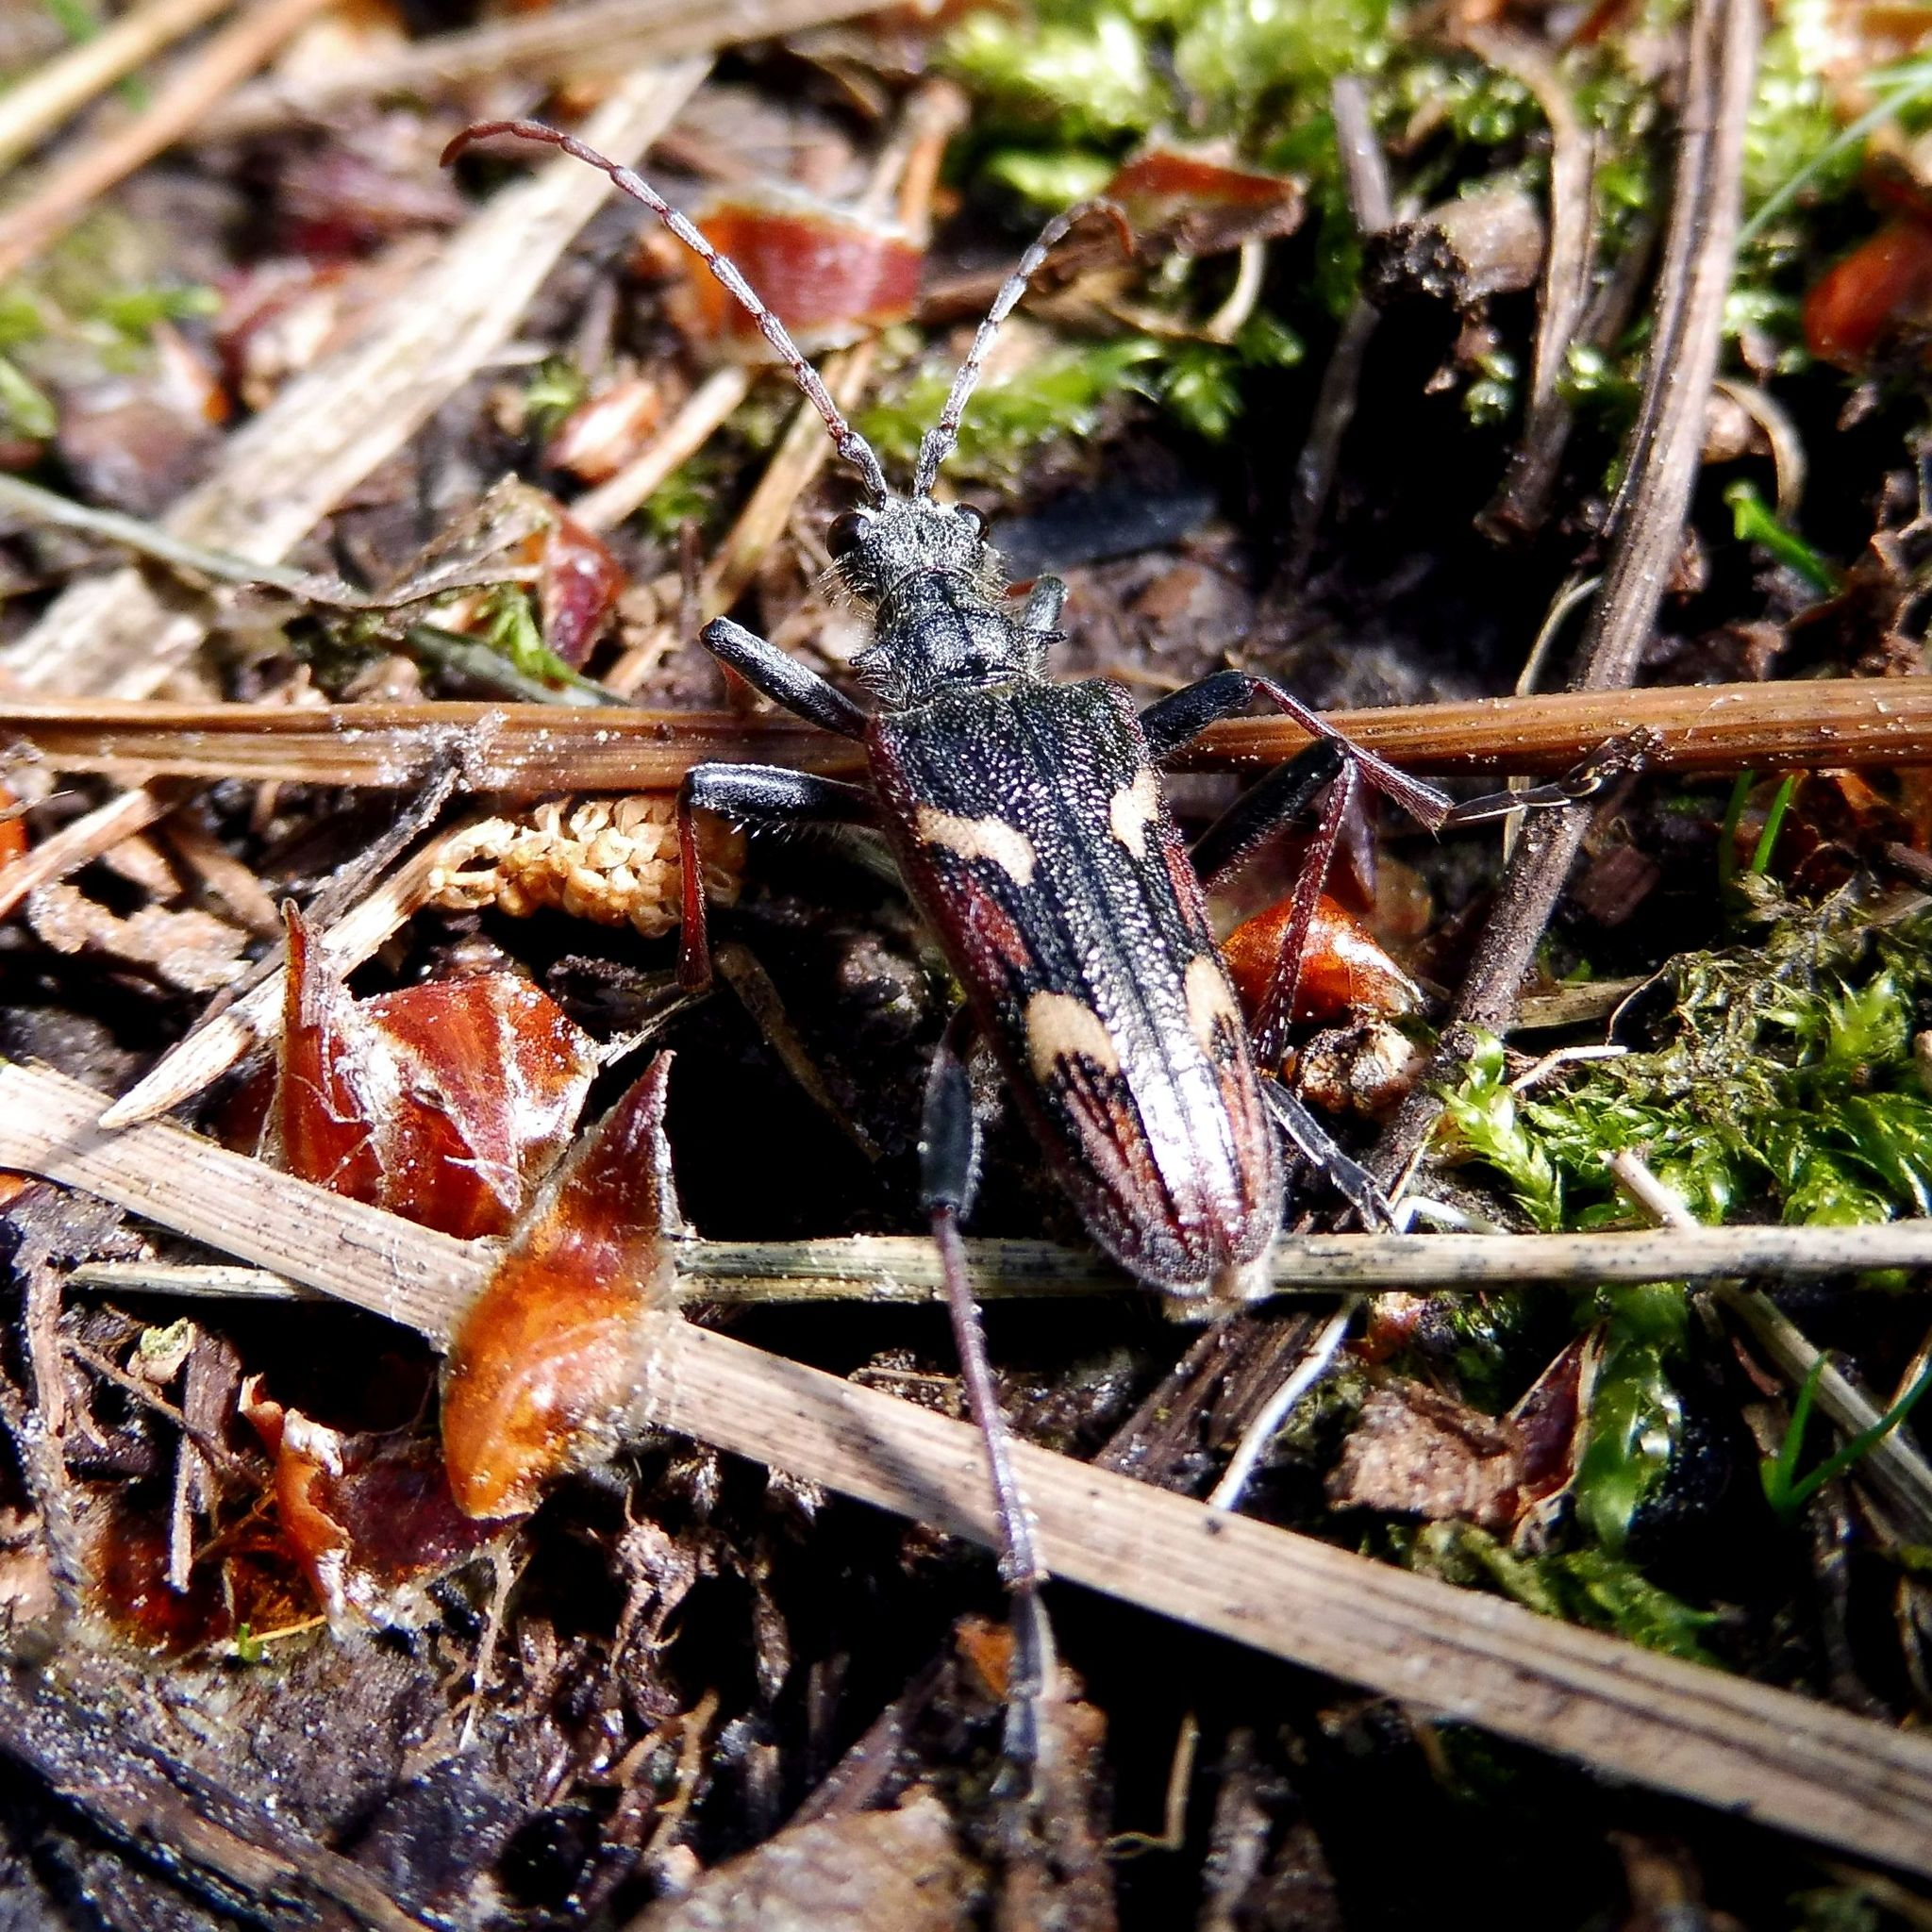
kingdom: Animalia
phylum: Arthropoda
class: Insecta
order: Coleoptera
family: Cerambycidae
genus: Rhagium
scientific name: Rhagium bifasciatum
